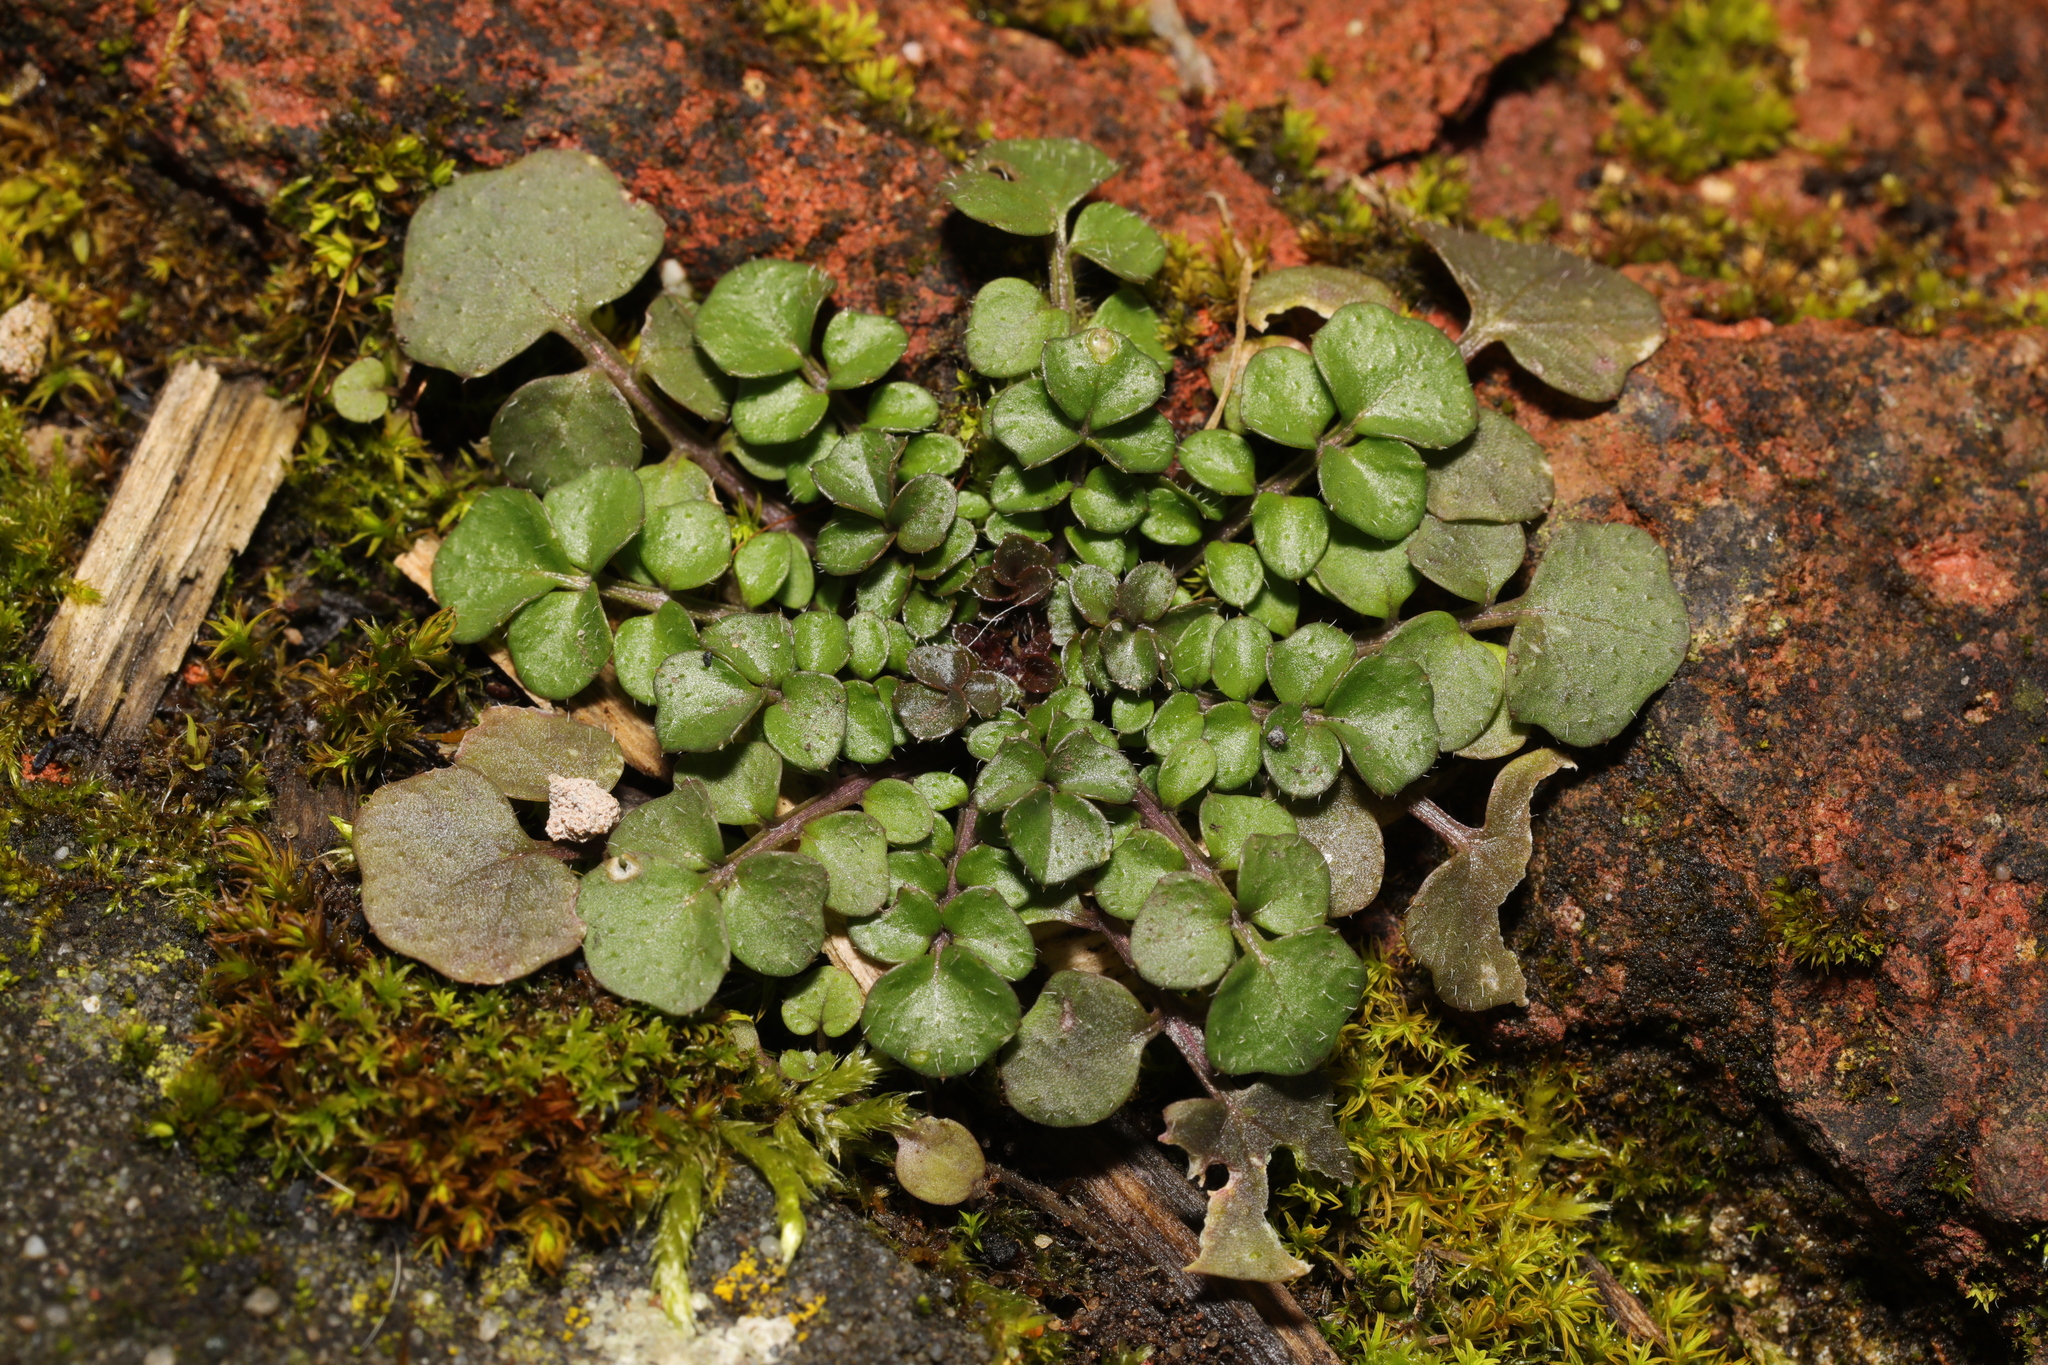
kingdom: Plantae
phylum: Tracheophyta
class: Magnoliopsida
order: Brassicales
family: Brassicaceae
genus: Cardamine
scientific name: Cardamine hirsuta
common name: Hairy bittercress
